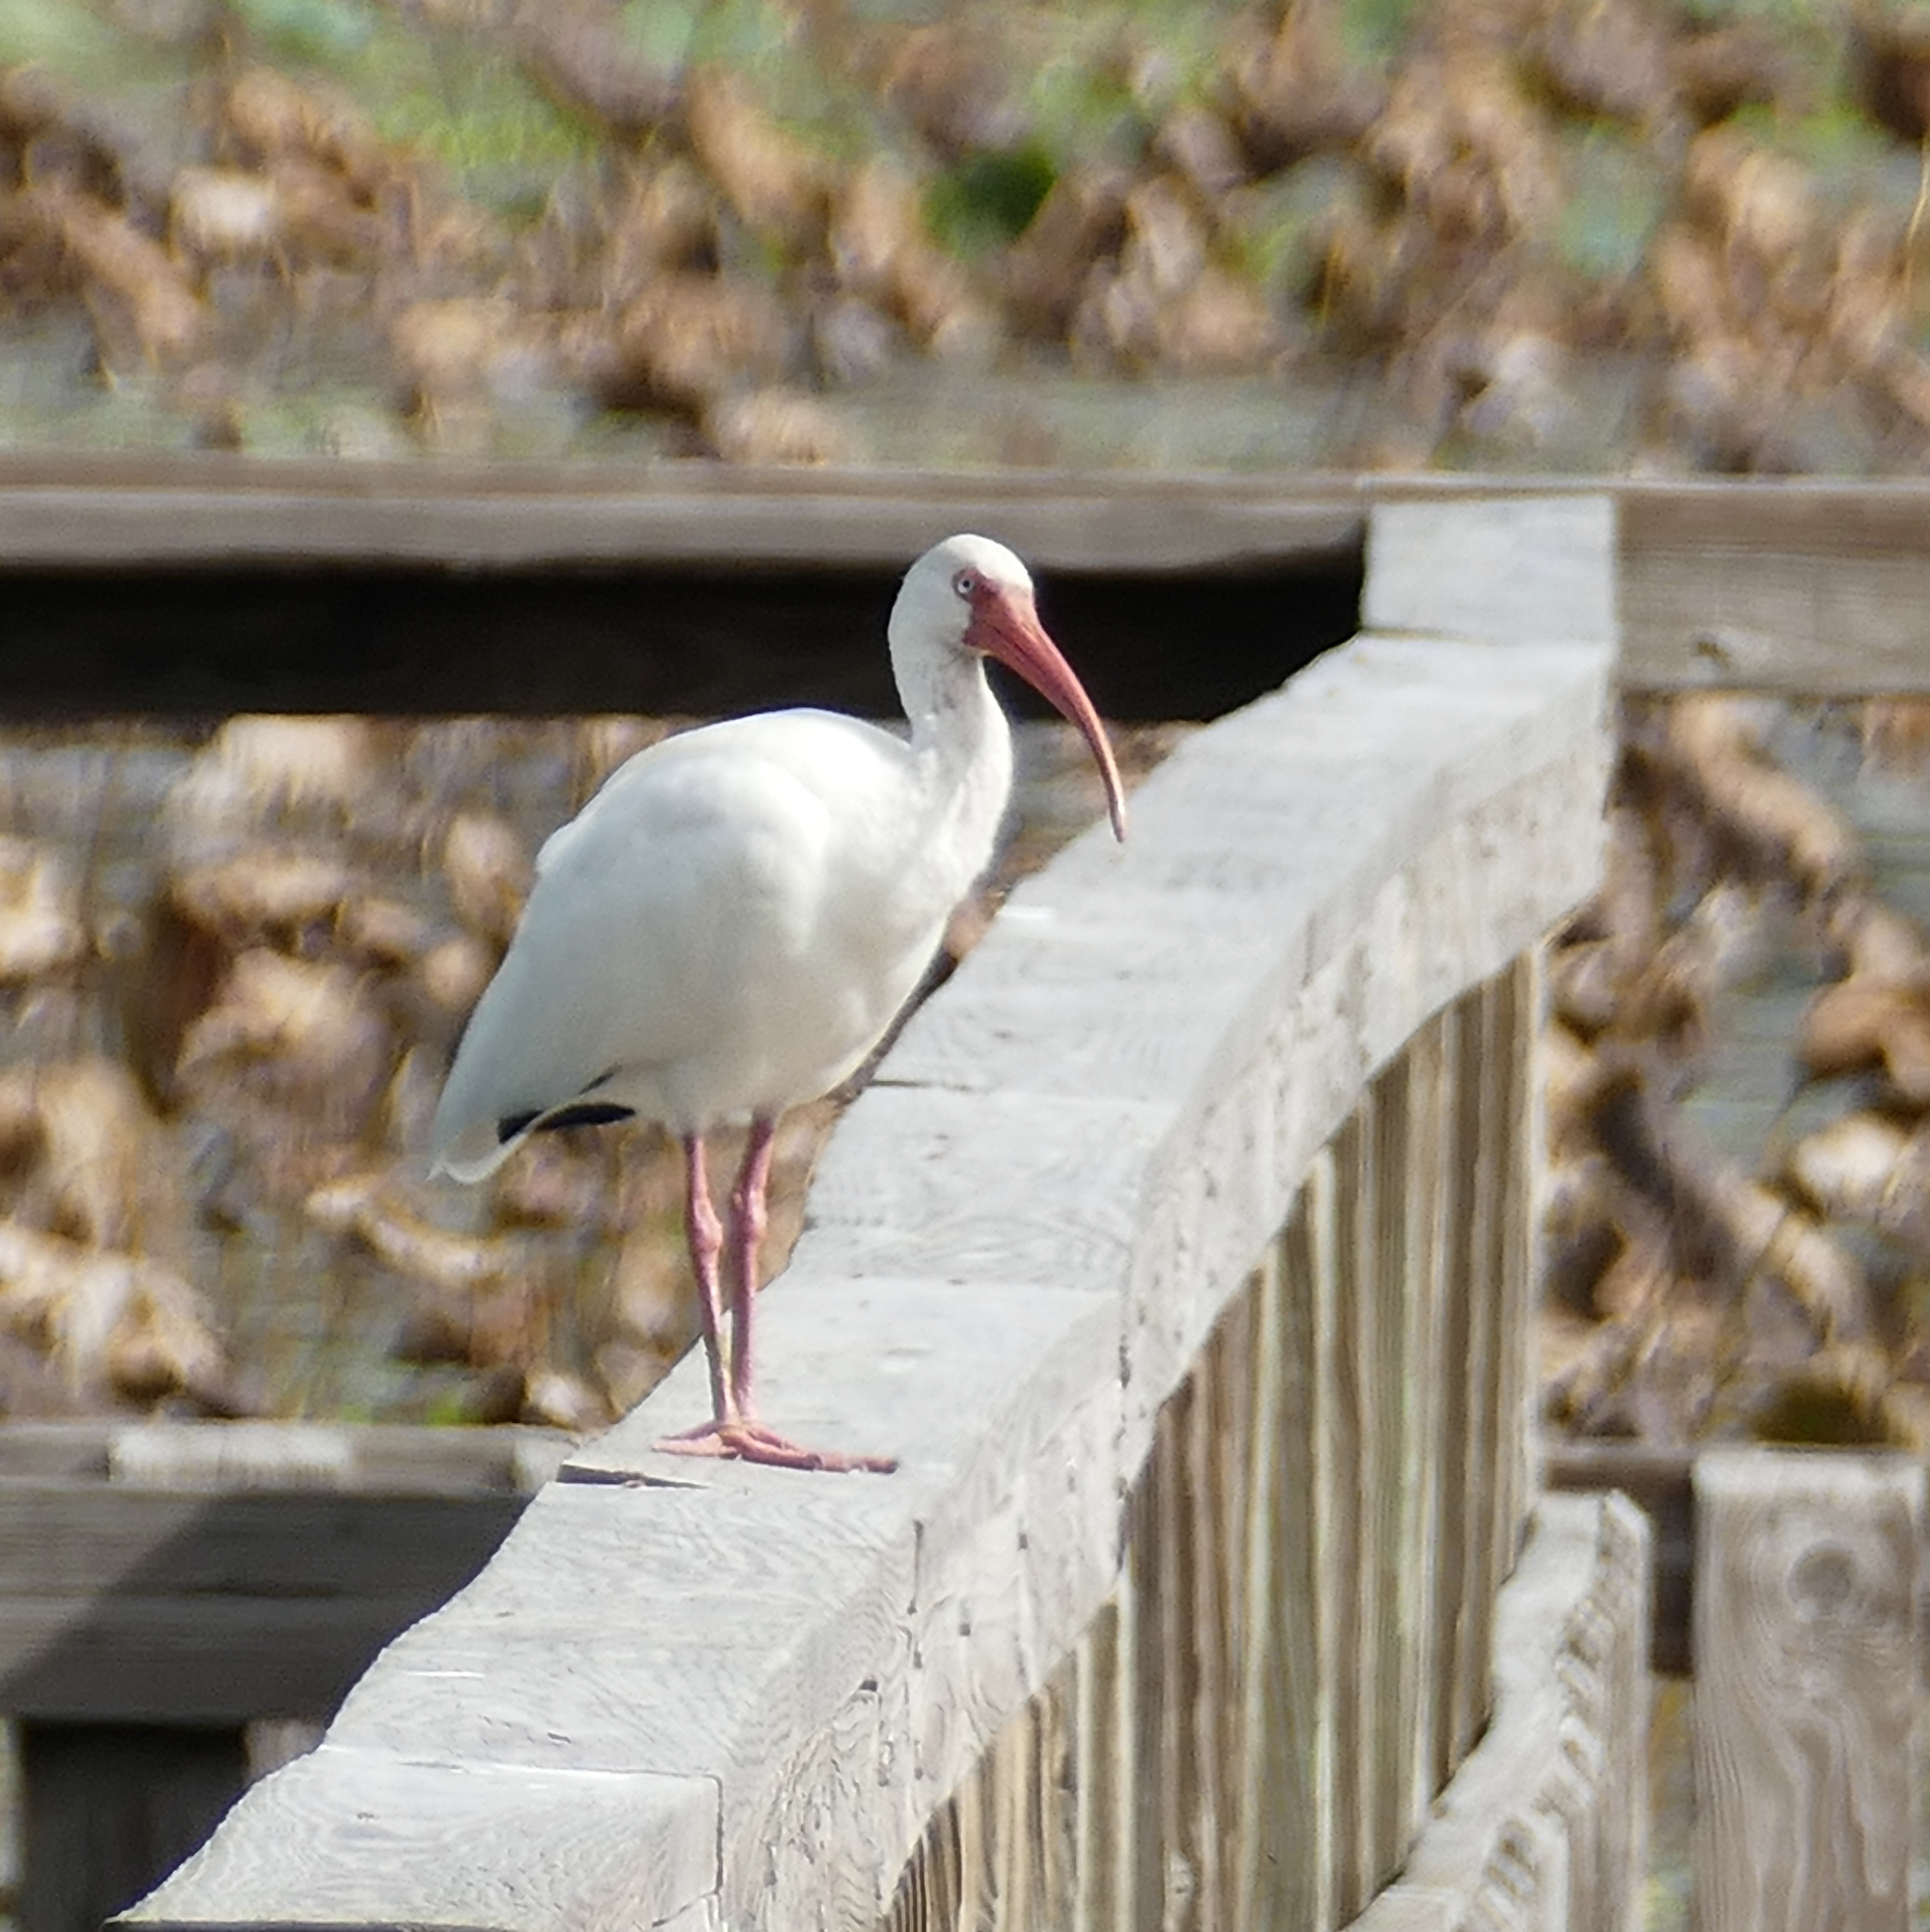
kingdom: Animalia
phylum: Chordata
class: Aves
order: Pelecaniformes
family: Threskiornithidae
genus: Eudocimus
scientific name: Eudocimus albus
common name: White ibis
